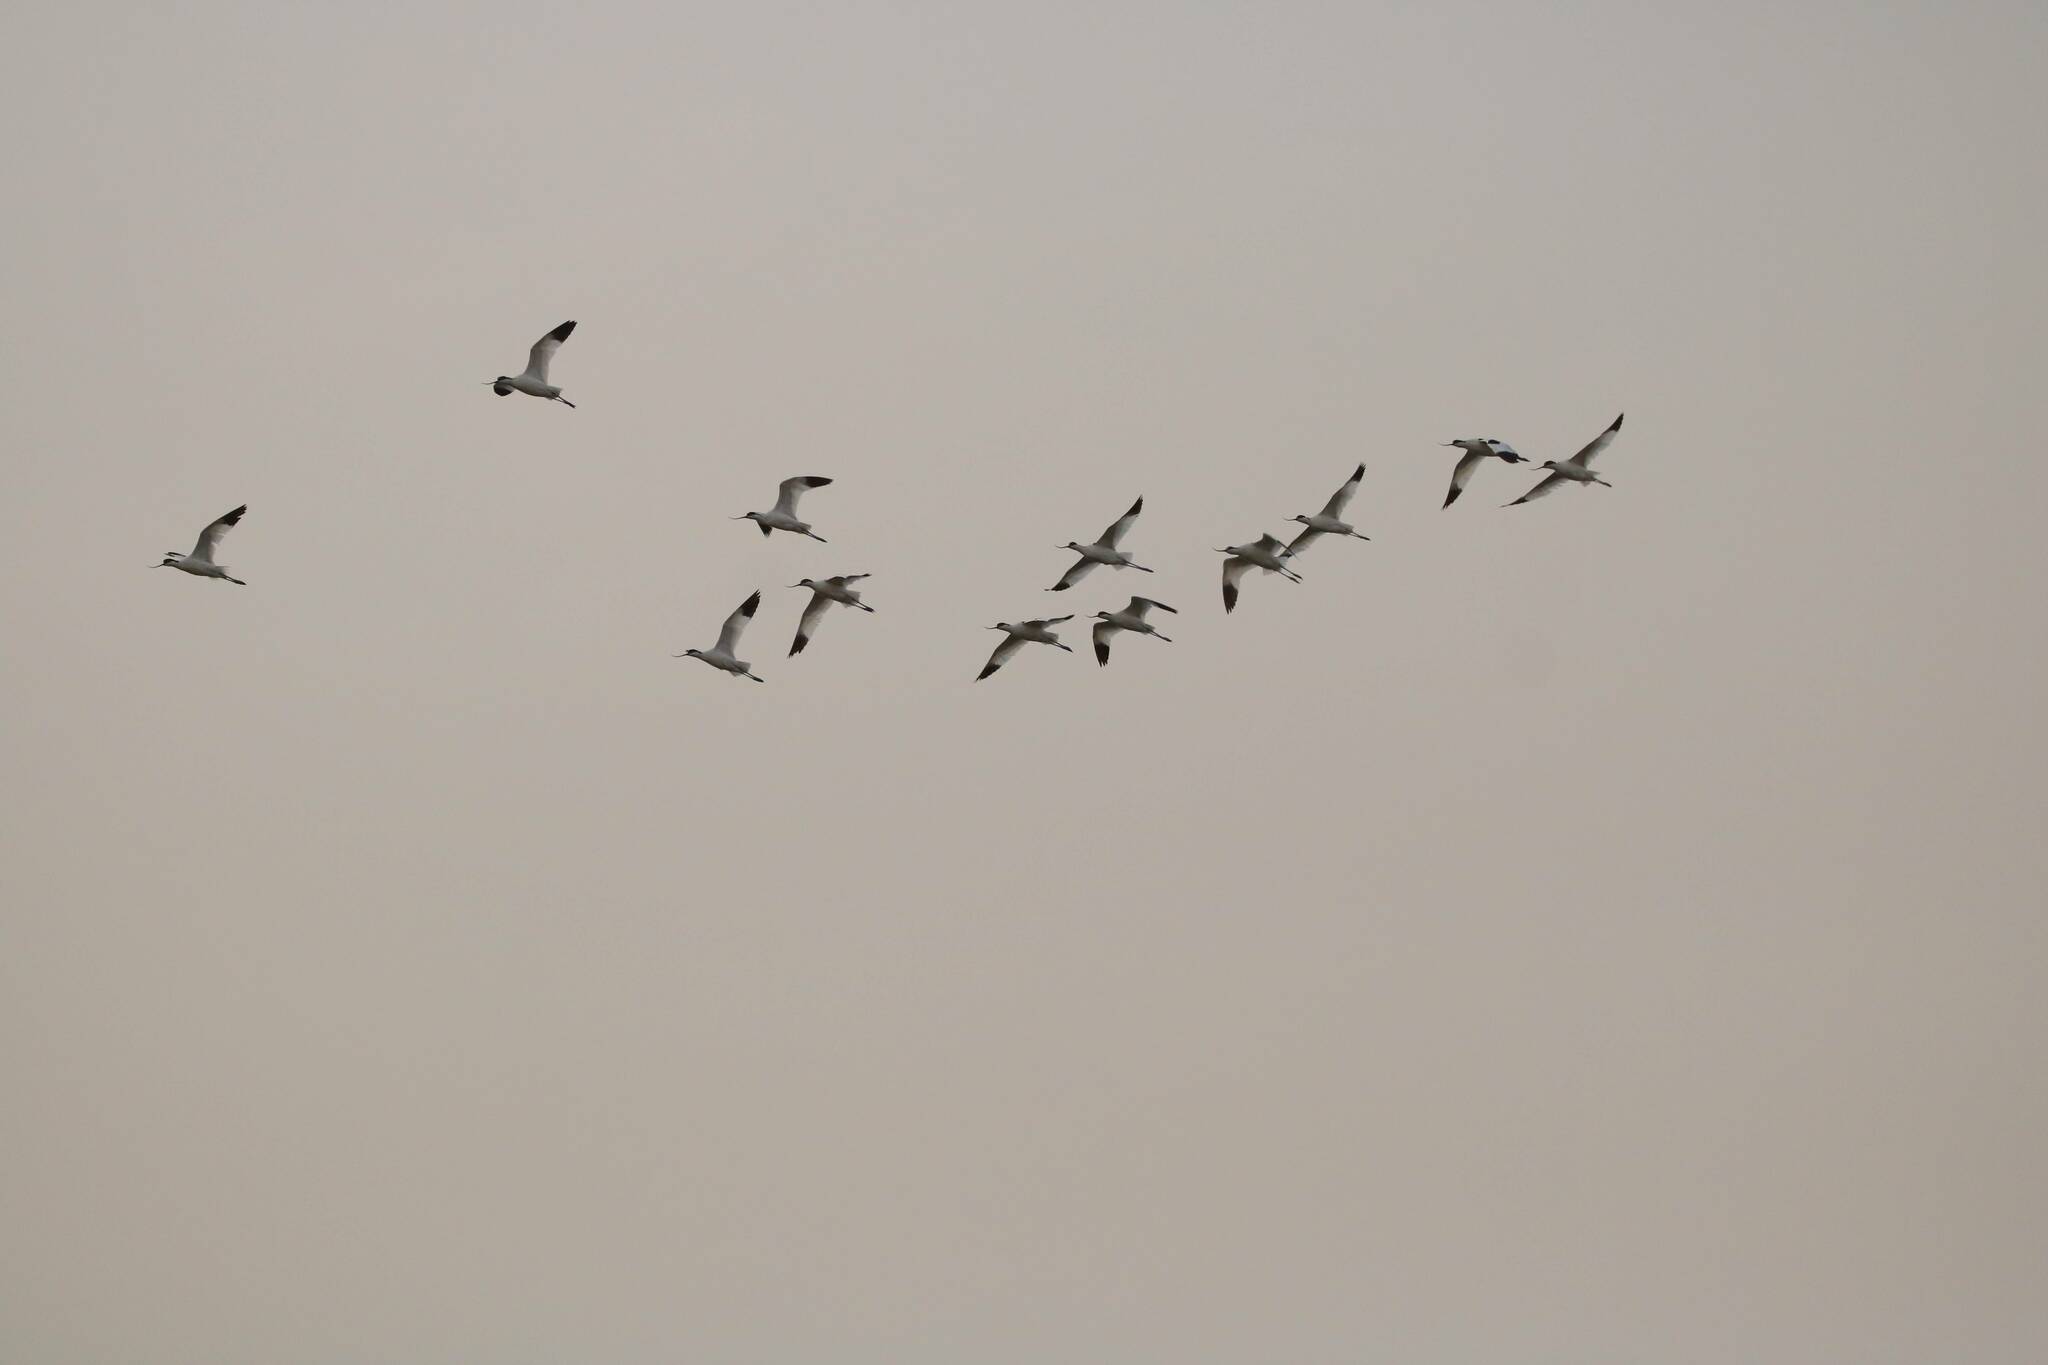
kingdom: Animalia
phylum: Chordata
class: Aves
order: Charadriiformes
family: Recurvirostridae
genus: Recurvirostra
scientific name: Recurvirostra avosetta
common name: Pied avocet
